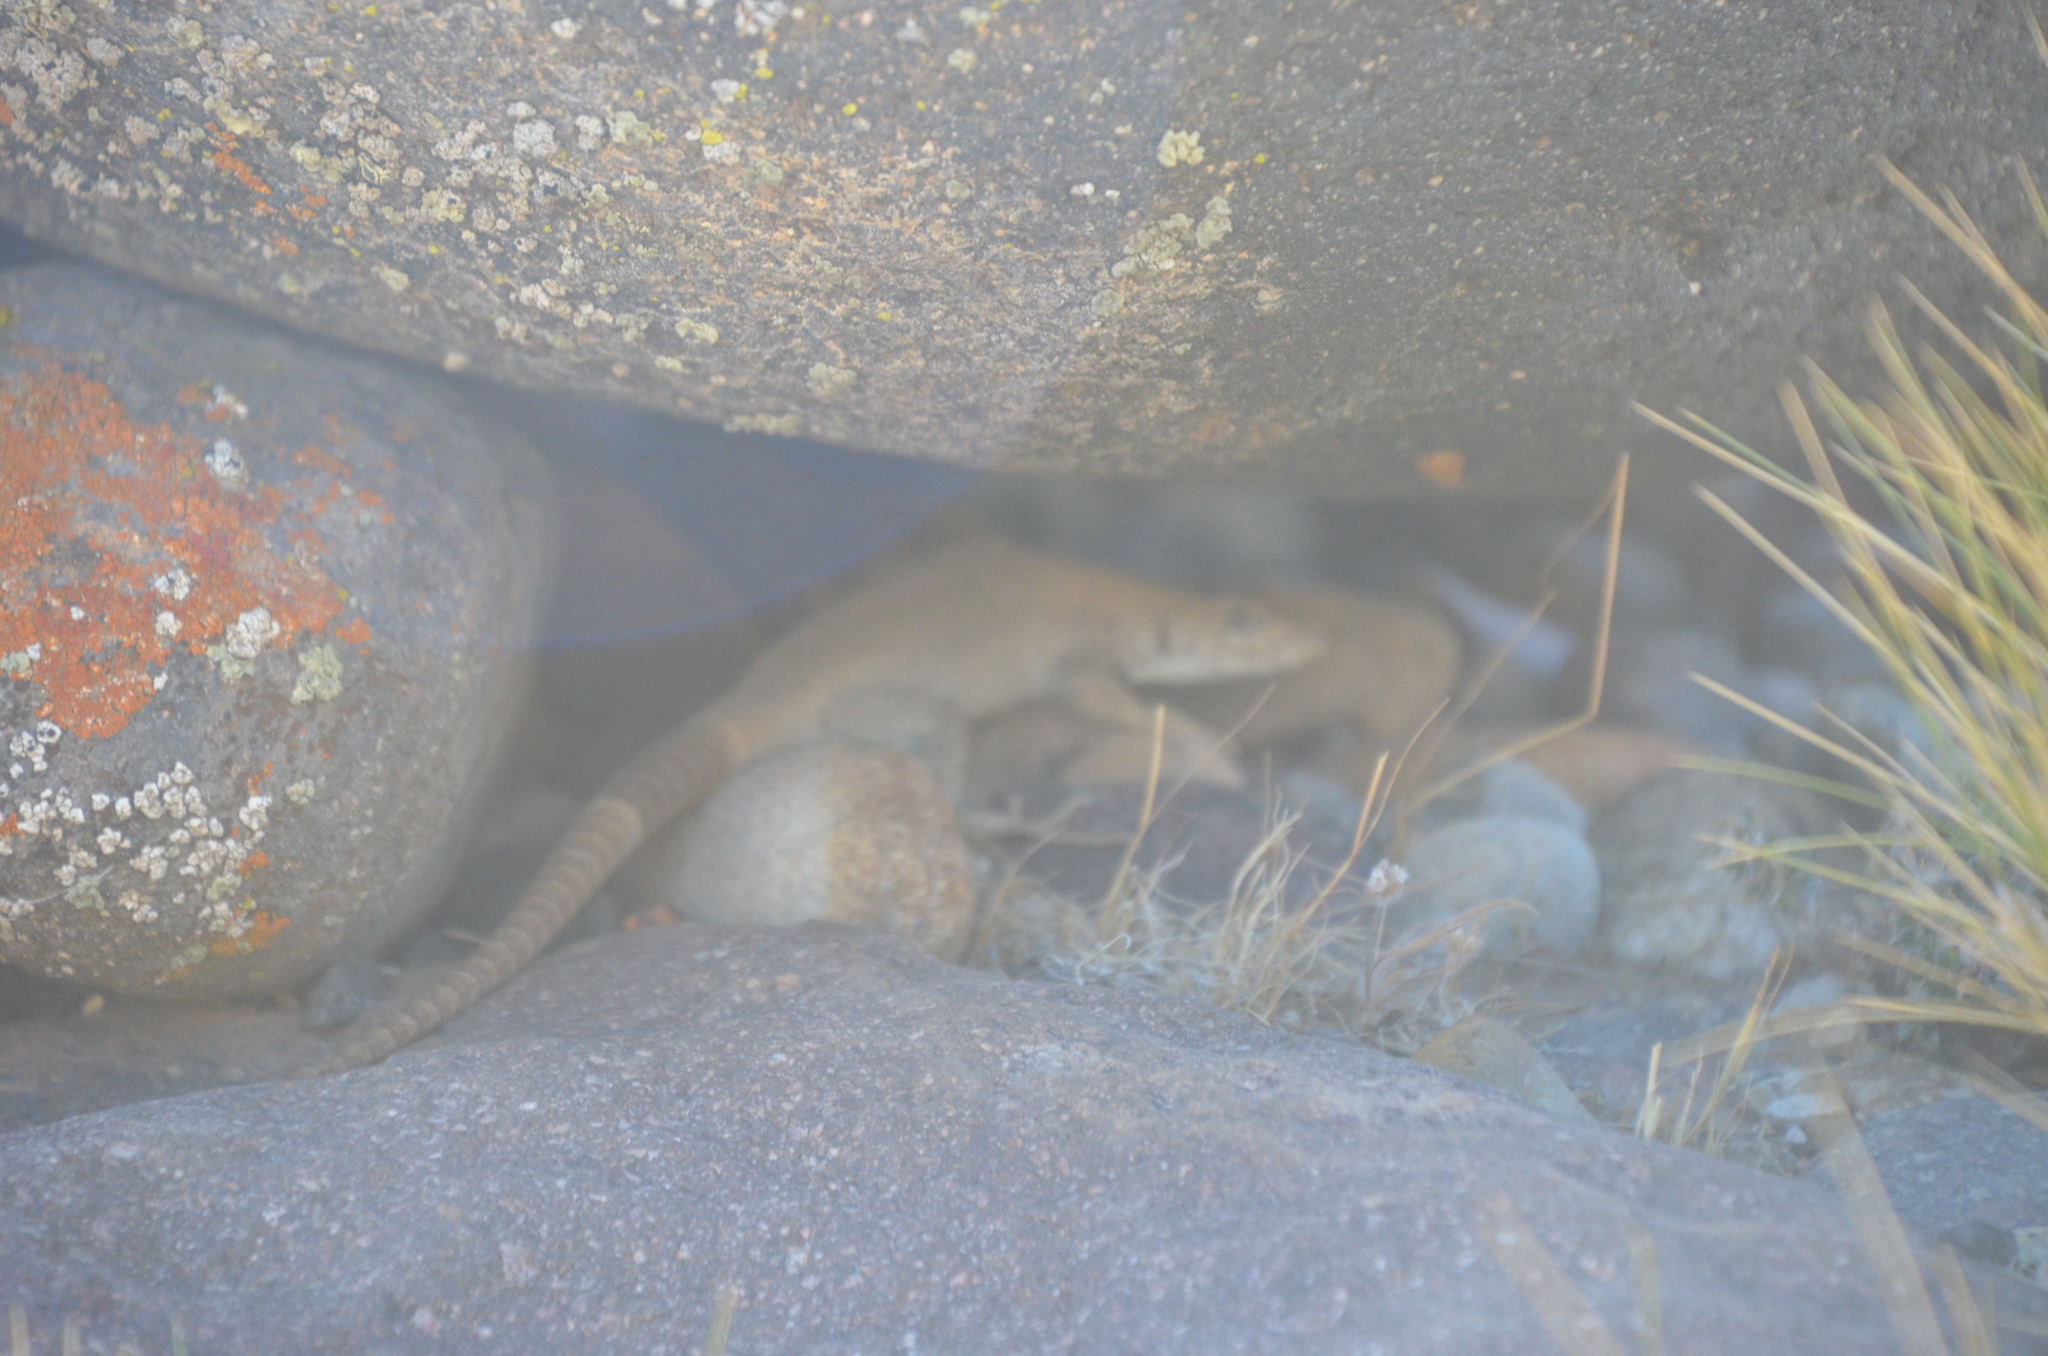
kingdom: Animalia
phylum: Chordata
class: Squamata
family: Liolaemidae
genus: Liolaemus
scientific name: Liolaemus austromendocinus
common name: Austromendocino tree iguana
